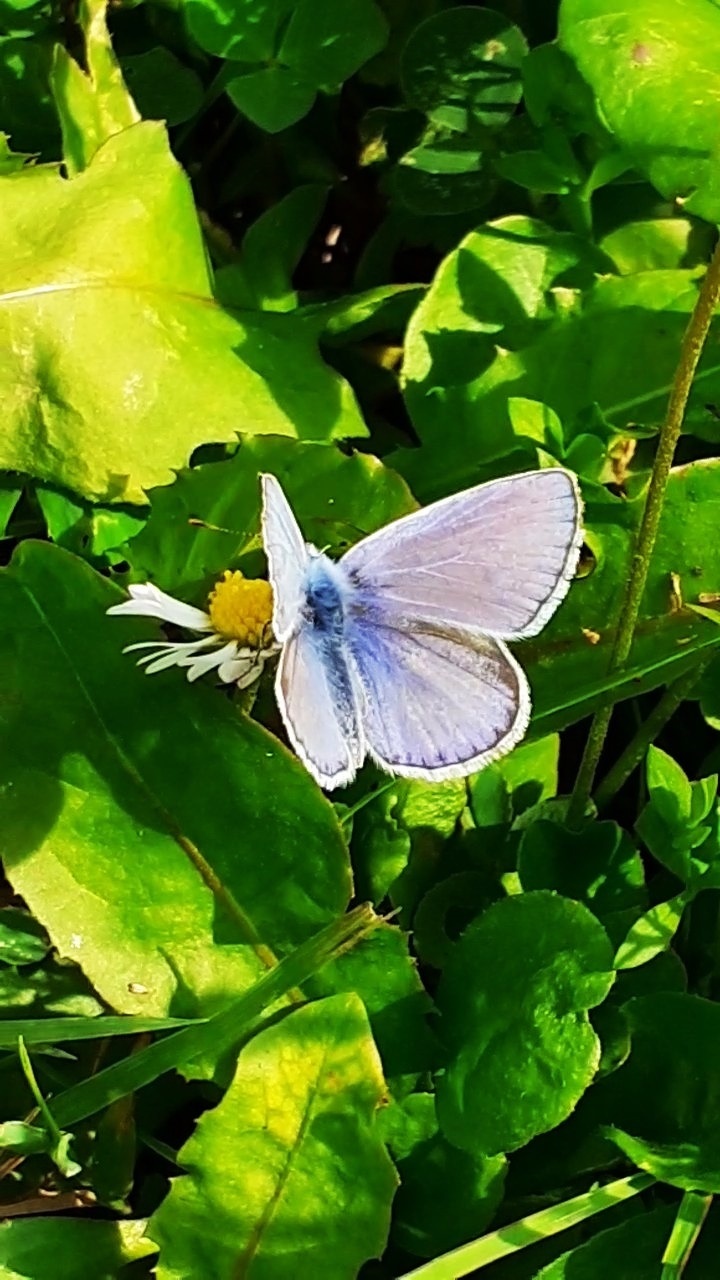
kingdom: Animalia
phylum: Arthropoda
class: Insecta
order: Lepidoptera
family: Lycaenidae
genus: Polyommatus
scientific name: Polyommatus icarus
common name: Common blue
